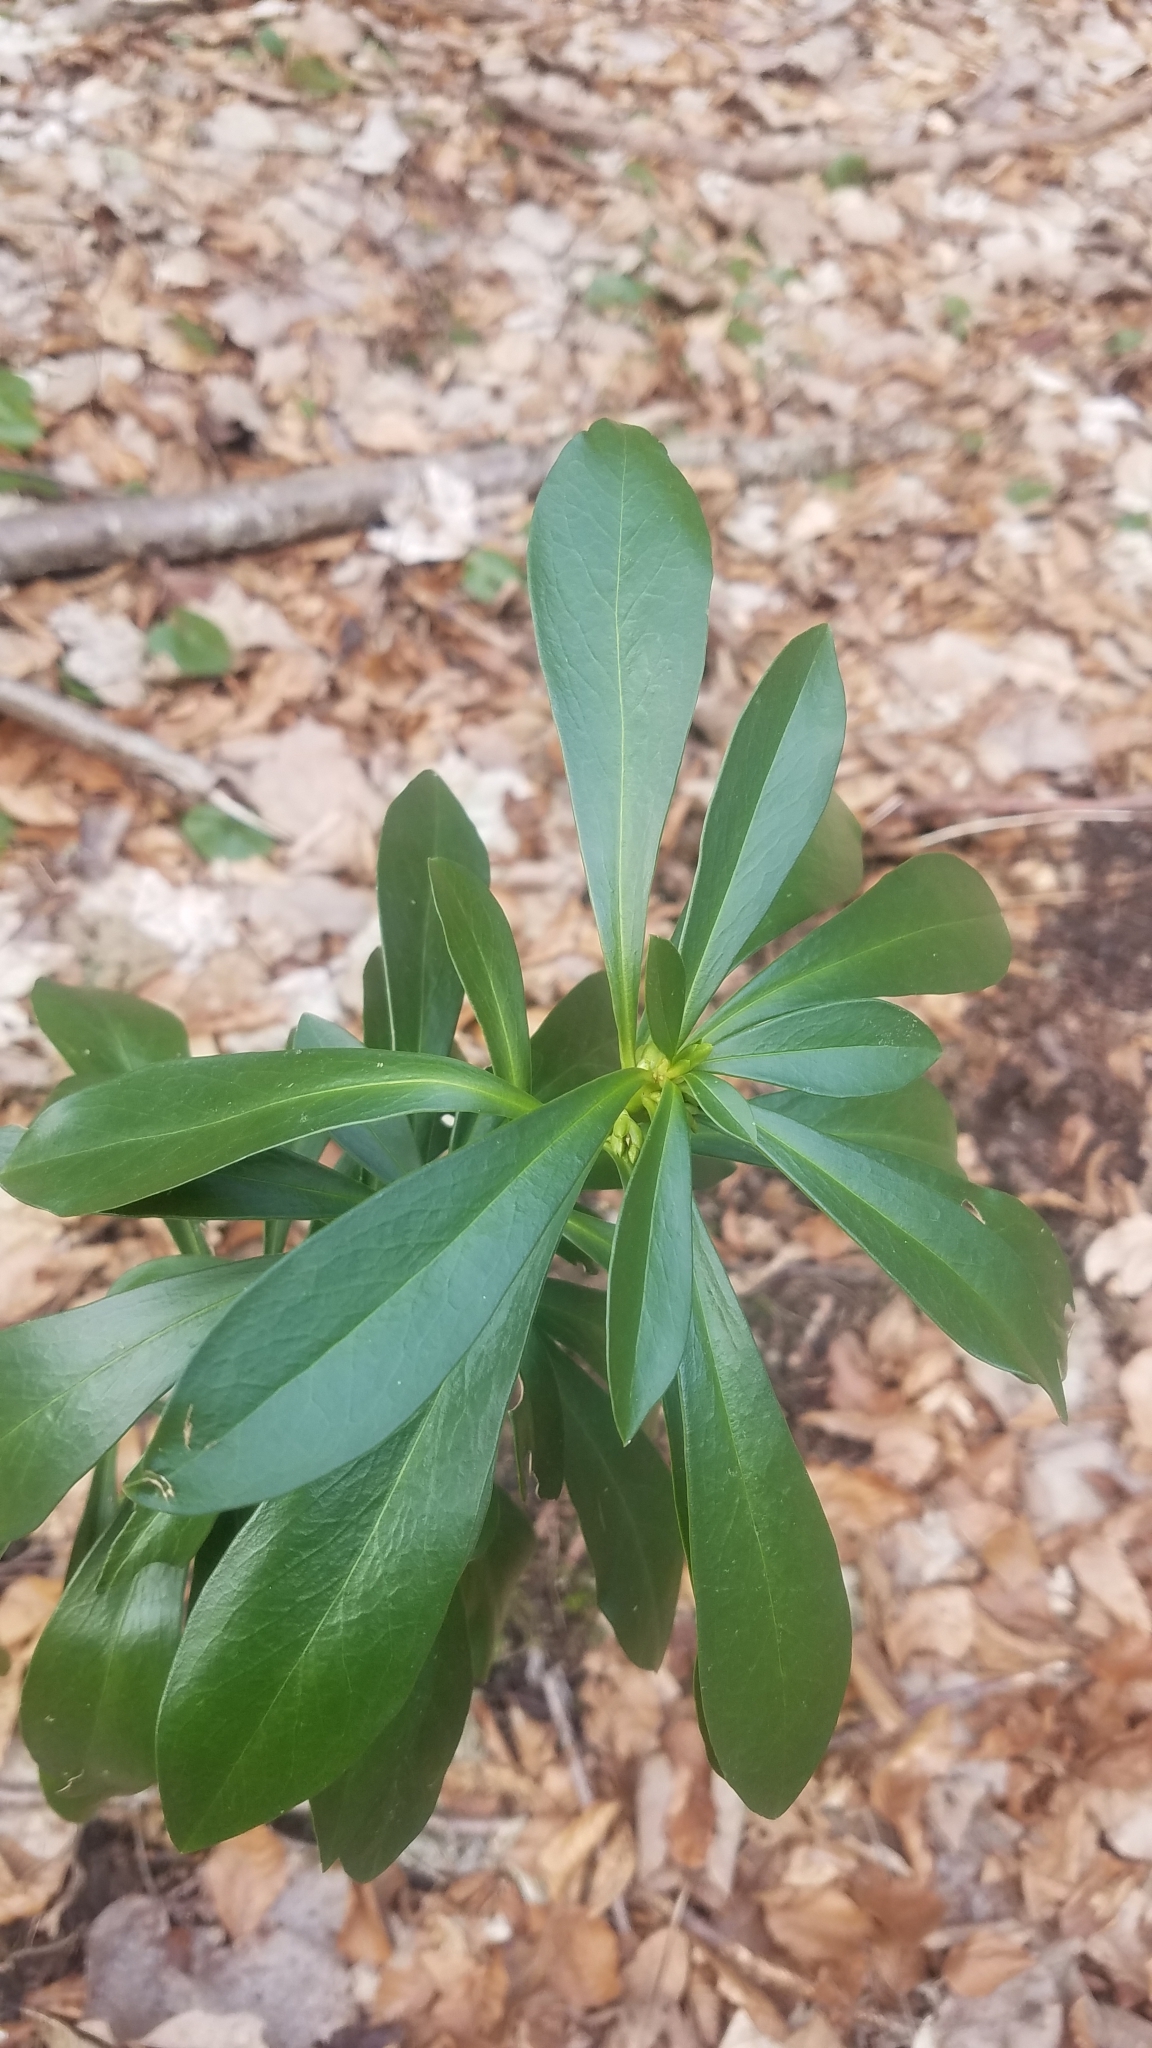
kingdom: Plantae
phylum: Tracheophyta
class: Magnoliopsida
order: Malvales
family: Thymelaeaceae
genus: Daphne
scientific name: Daphne laureola
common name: Spurge-laurel
